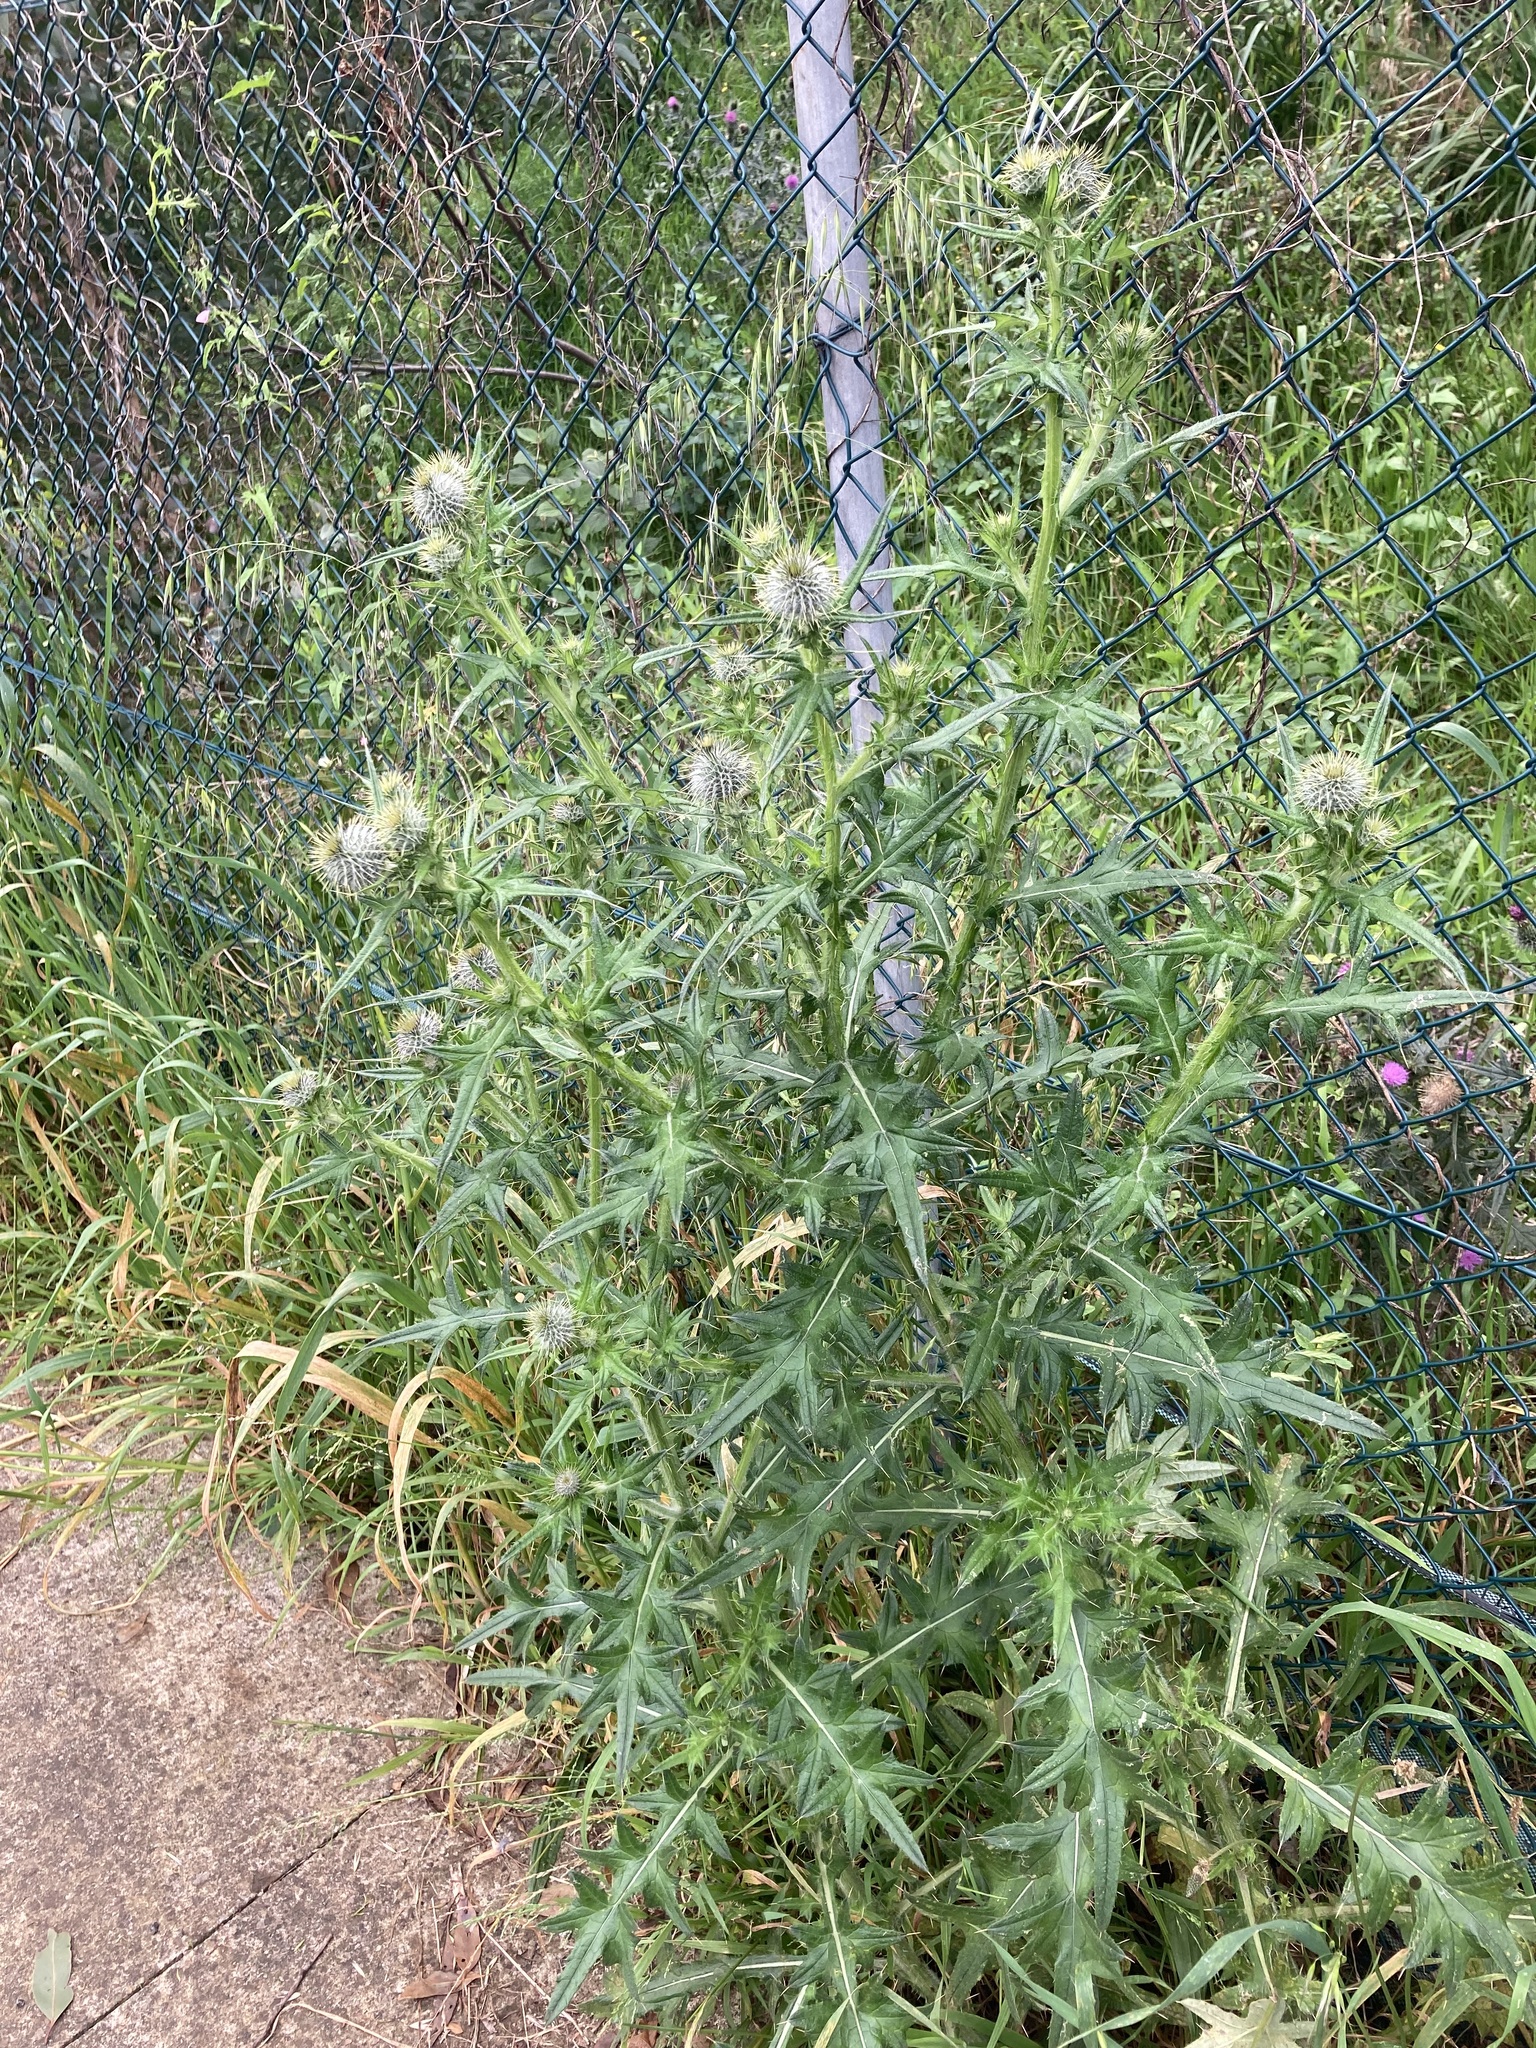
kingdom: Plantae
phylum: Tracheophyta
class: Magnoliopsida
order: Asterales
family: Asteraceae
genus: Cirsium
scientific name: Cirsium vulgare
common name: Bull thistle
